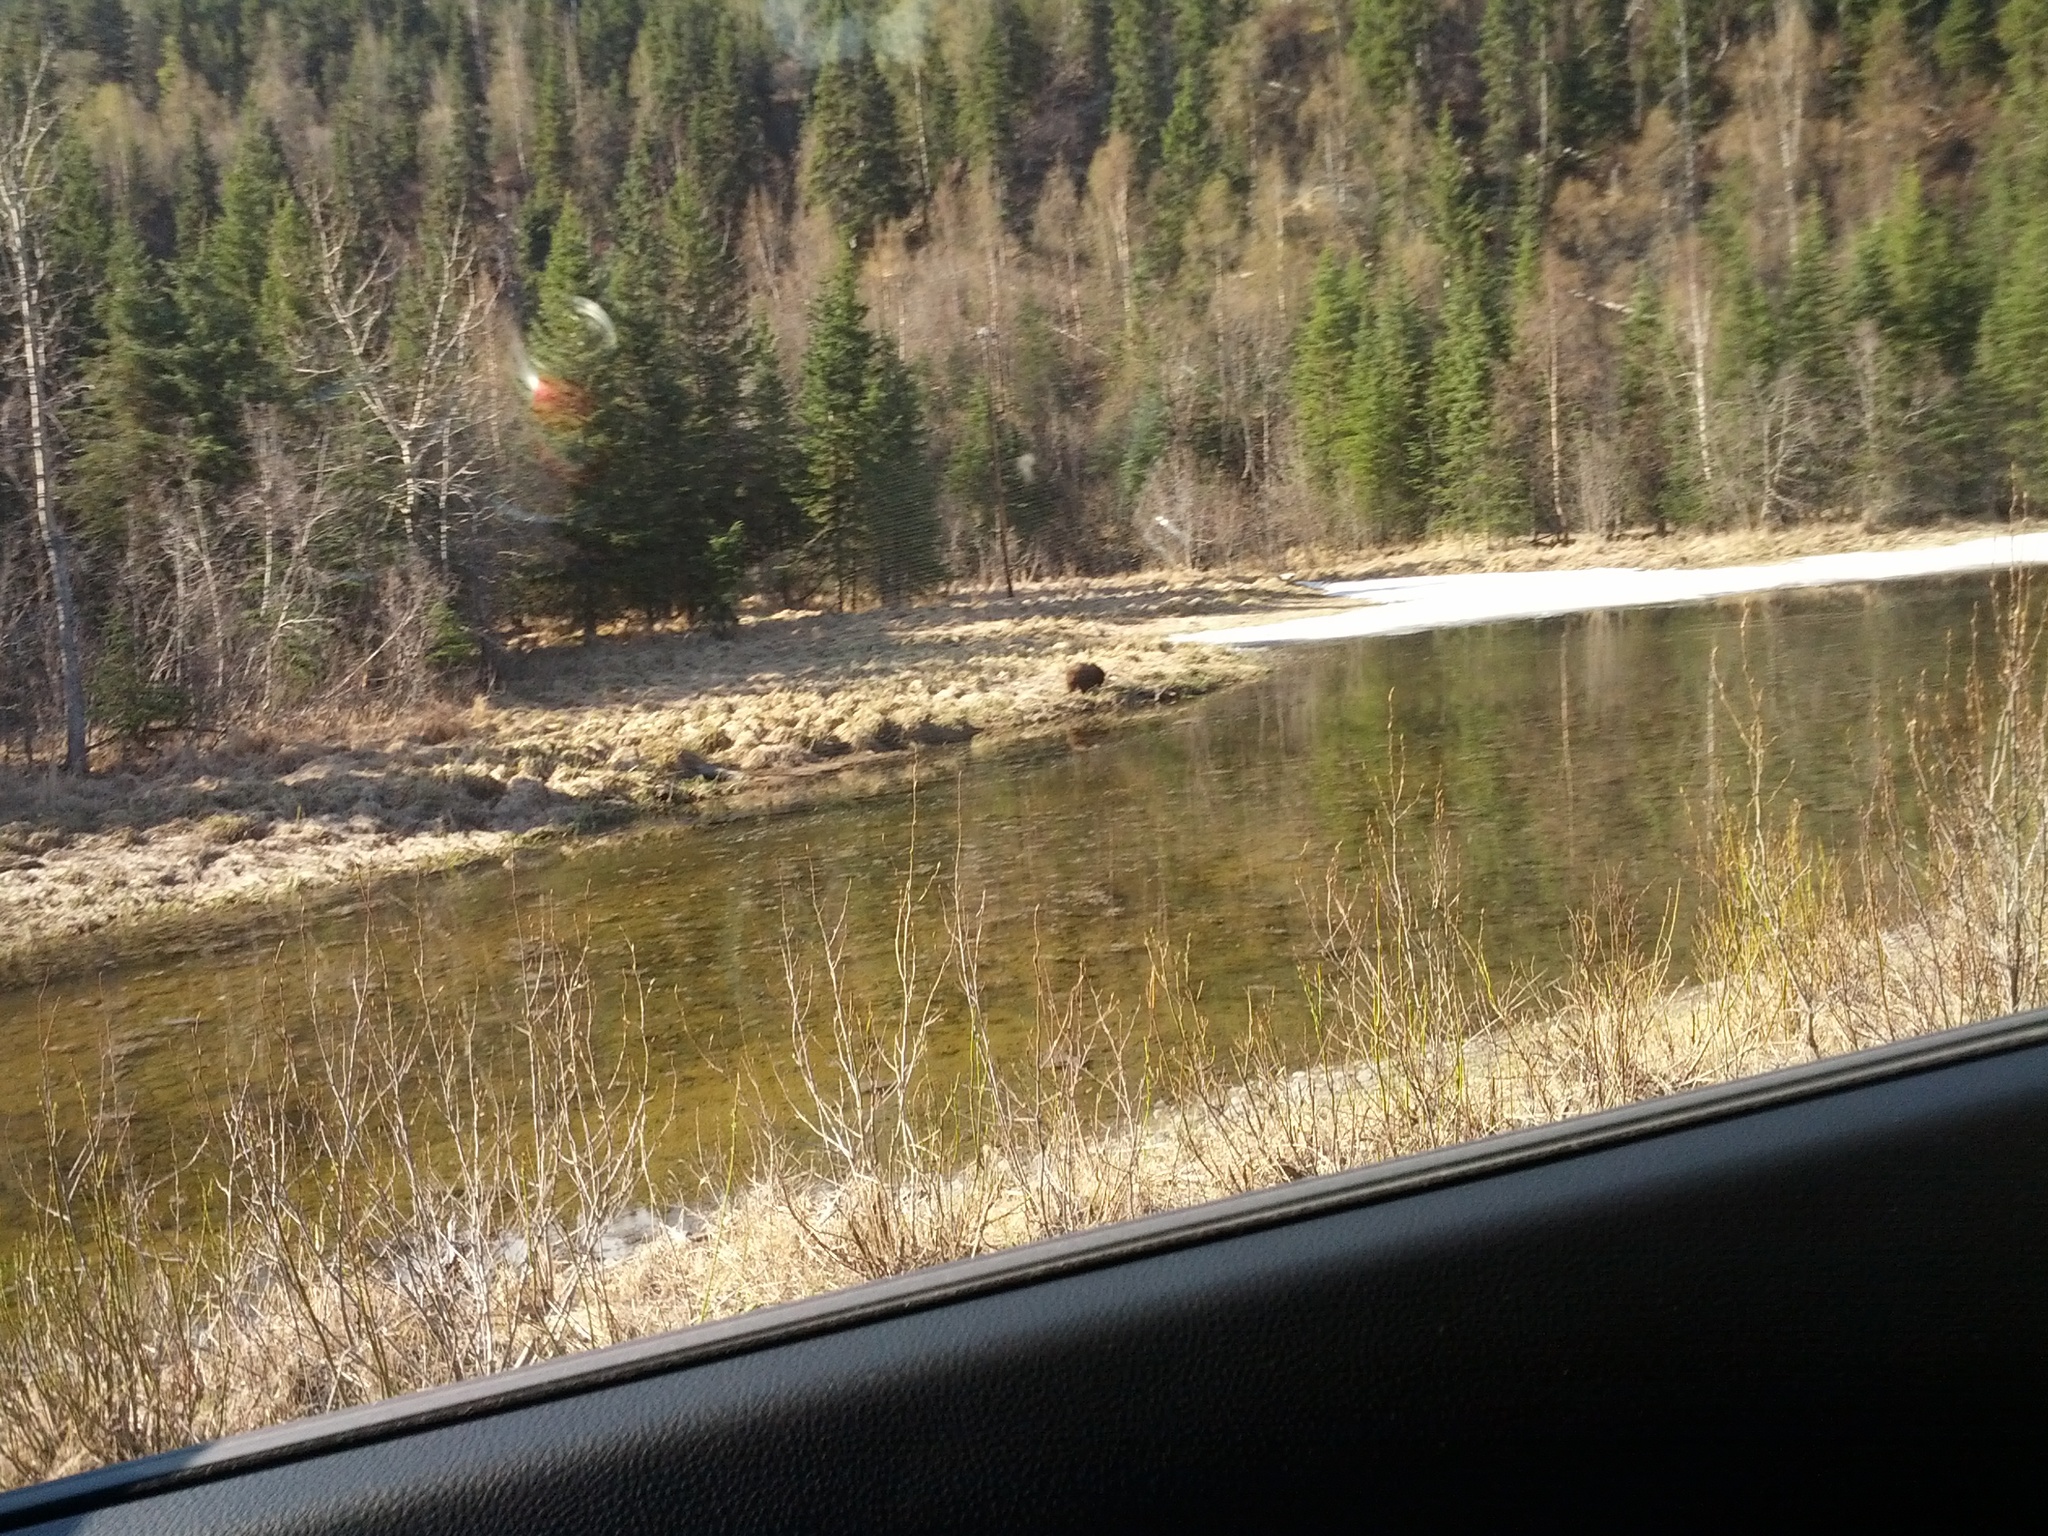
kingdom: Animalia
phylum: Chordata
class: Mammalia
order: Carnivora
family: Ursidae
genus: Ursus
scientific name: Ursus arctos
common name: Brown bear
